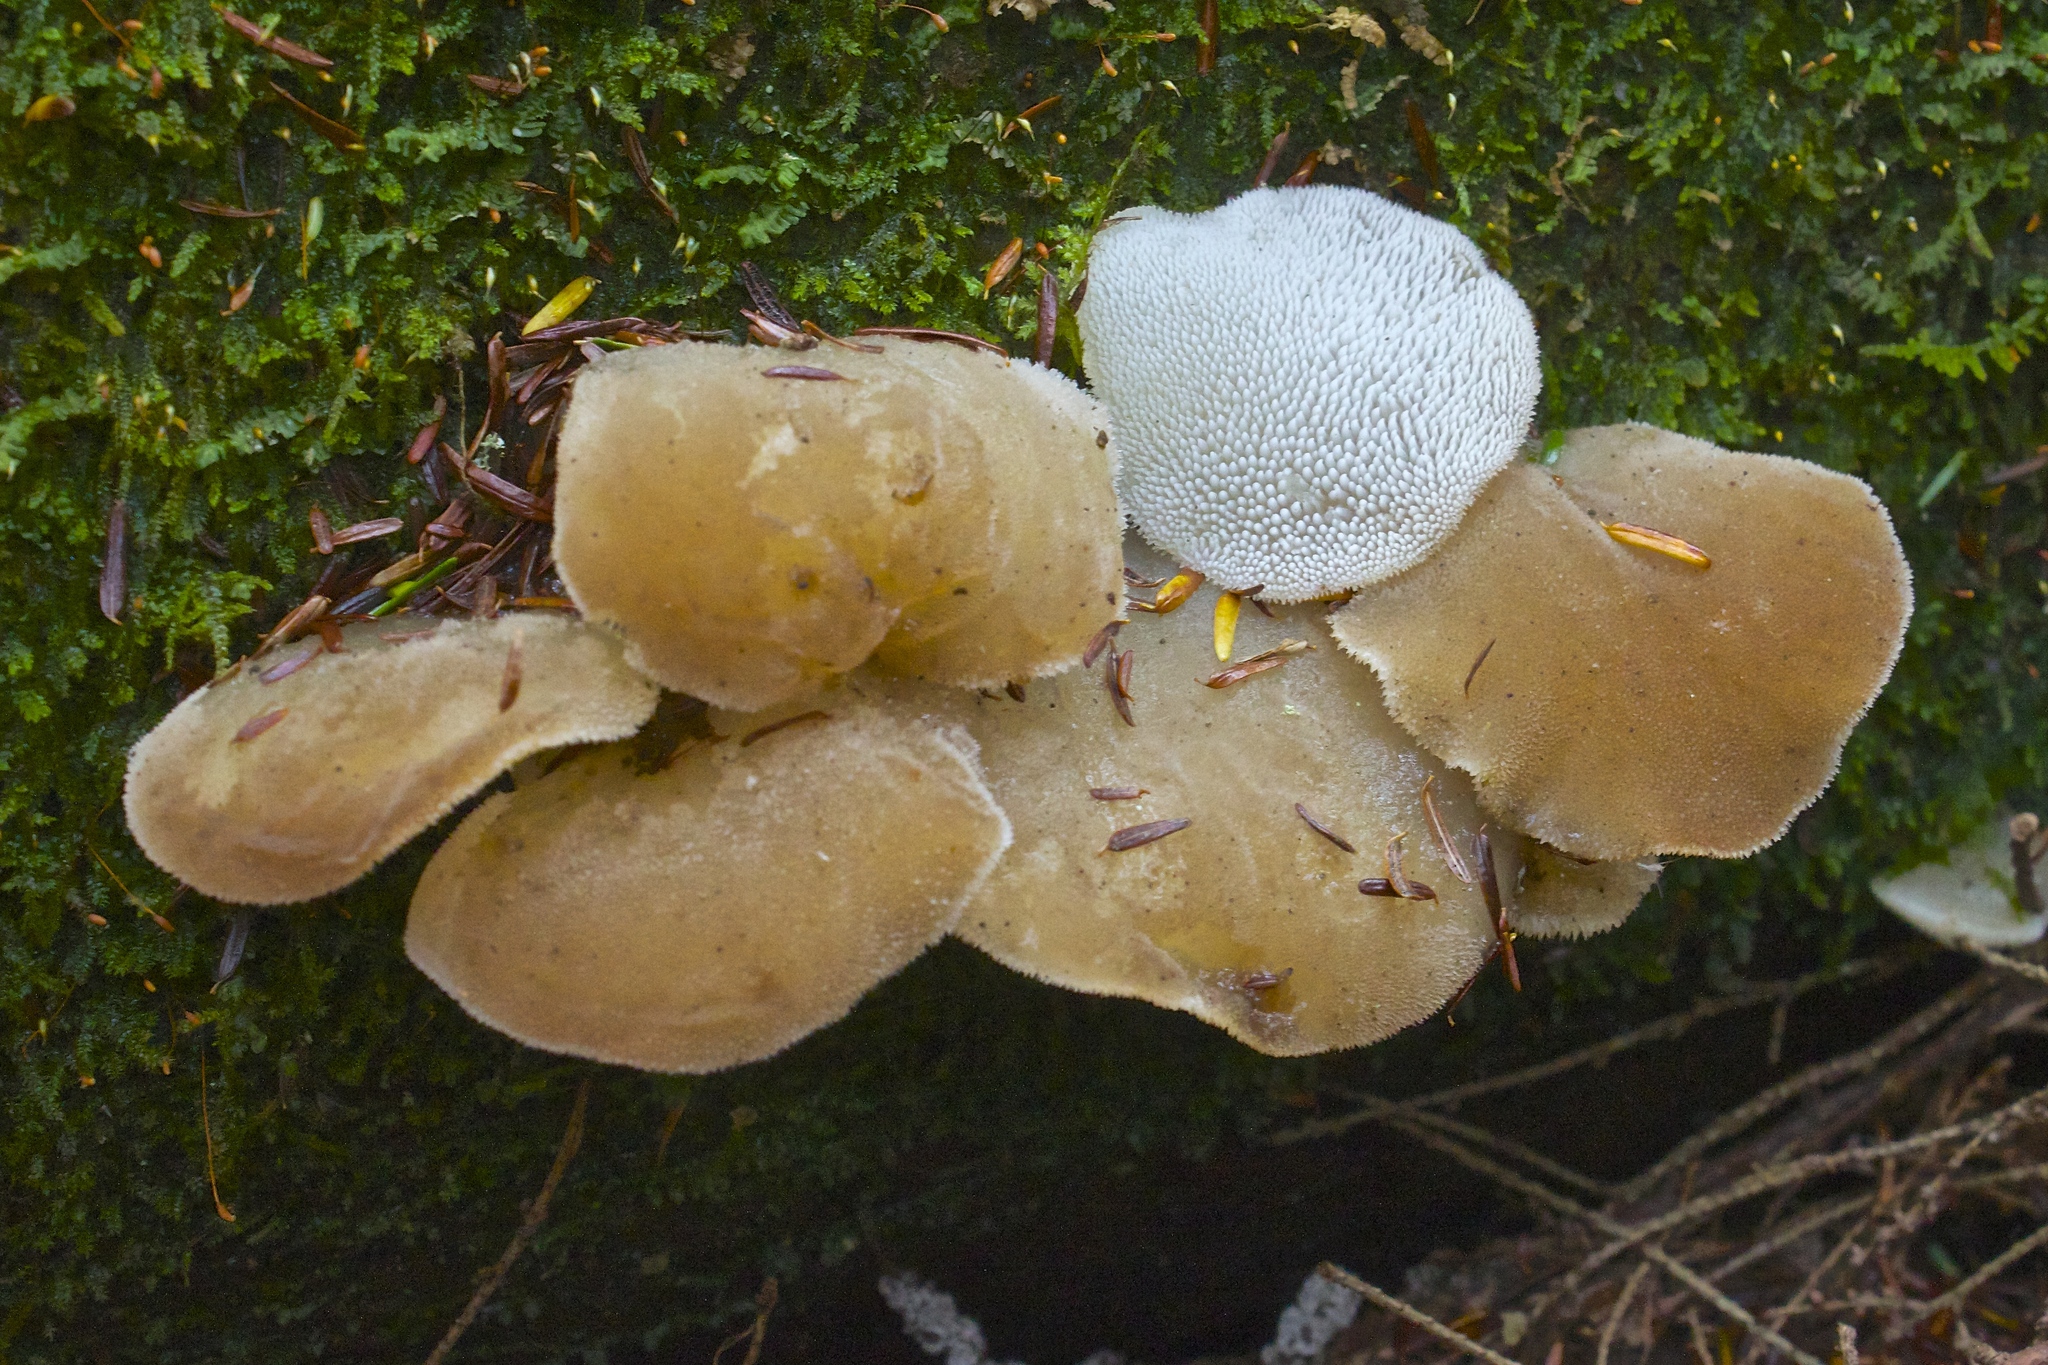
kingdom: Fungi
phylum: Basidiomycota
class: Agaricomycetes
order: Auriculariales
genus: Pseudohydnum
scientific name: Pseudohydnum gelatinosum
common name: Jelly tongue
